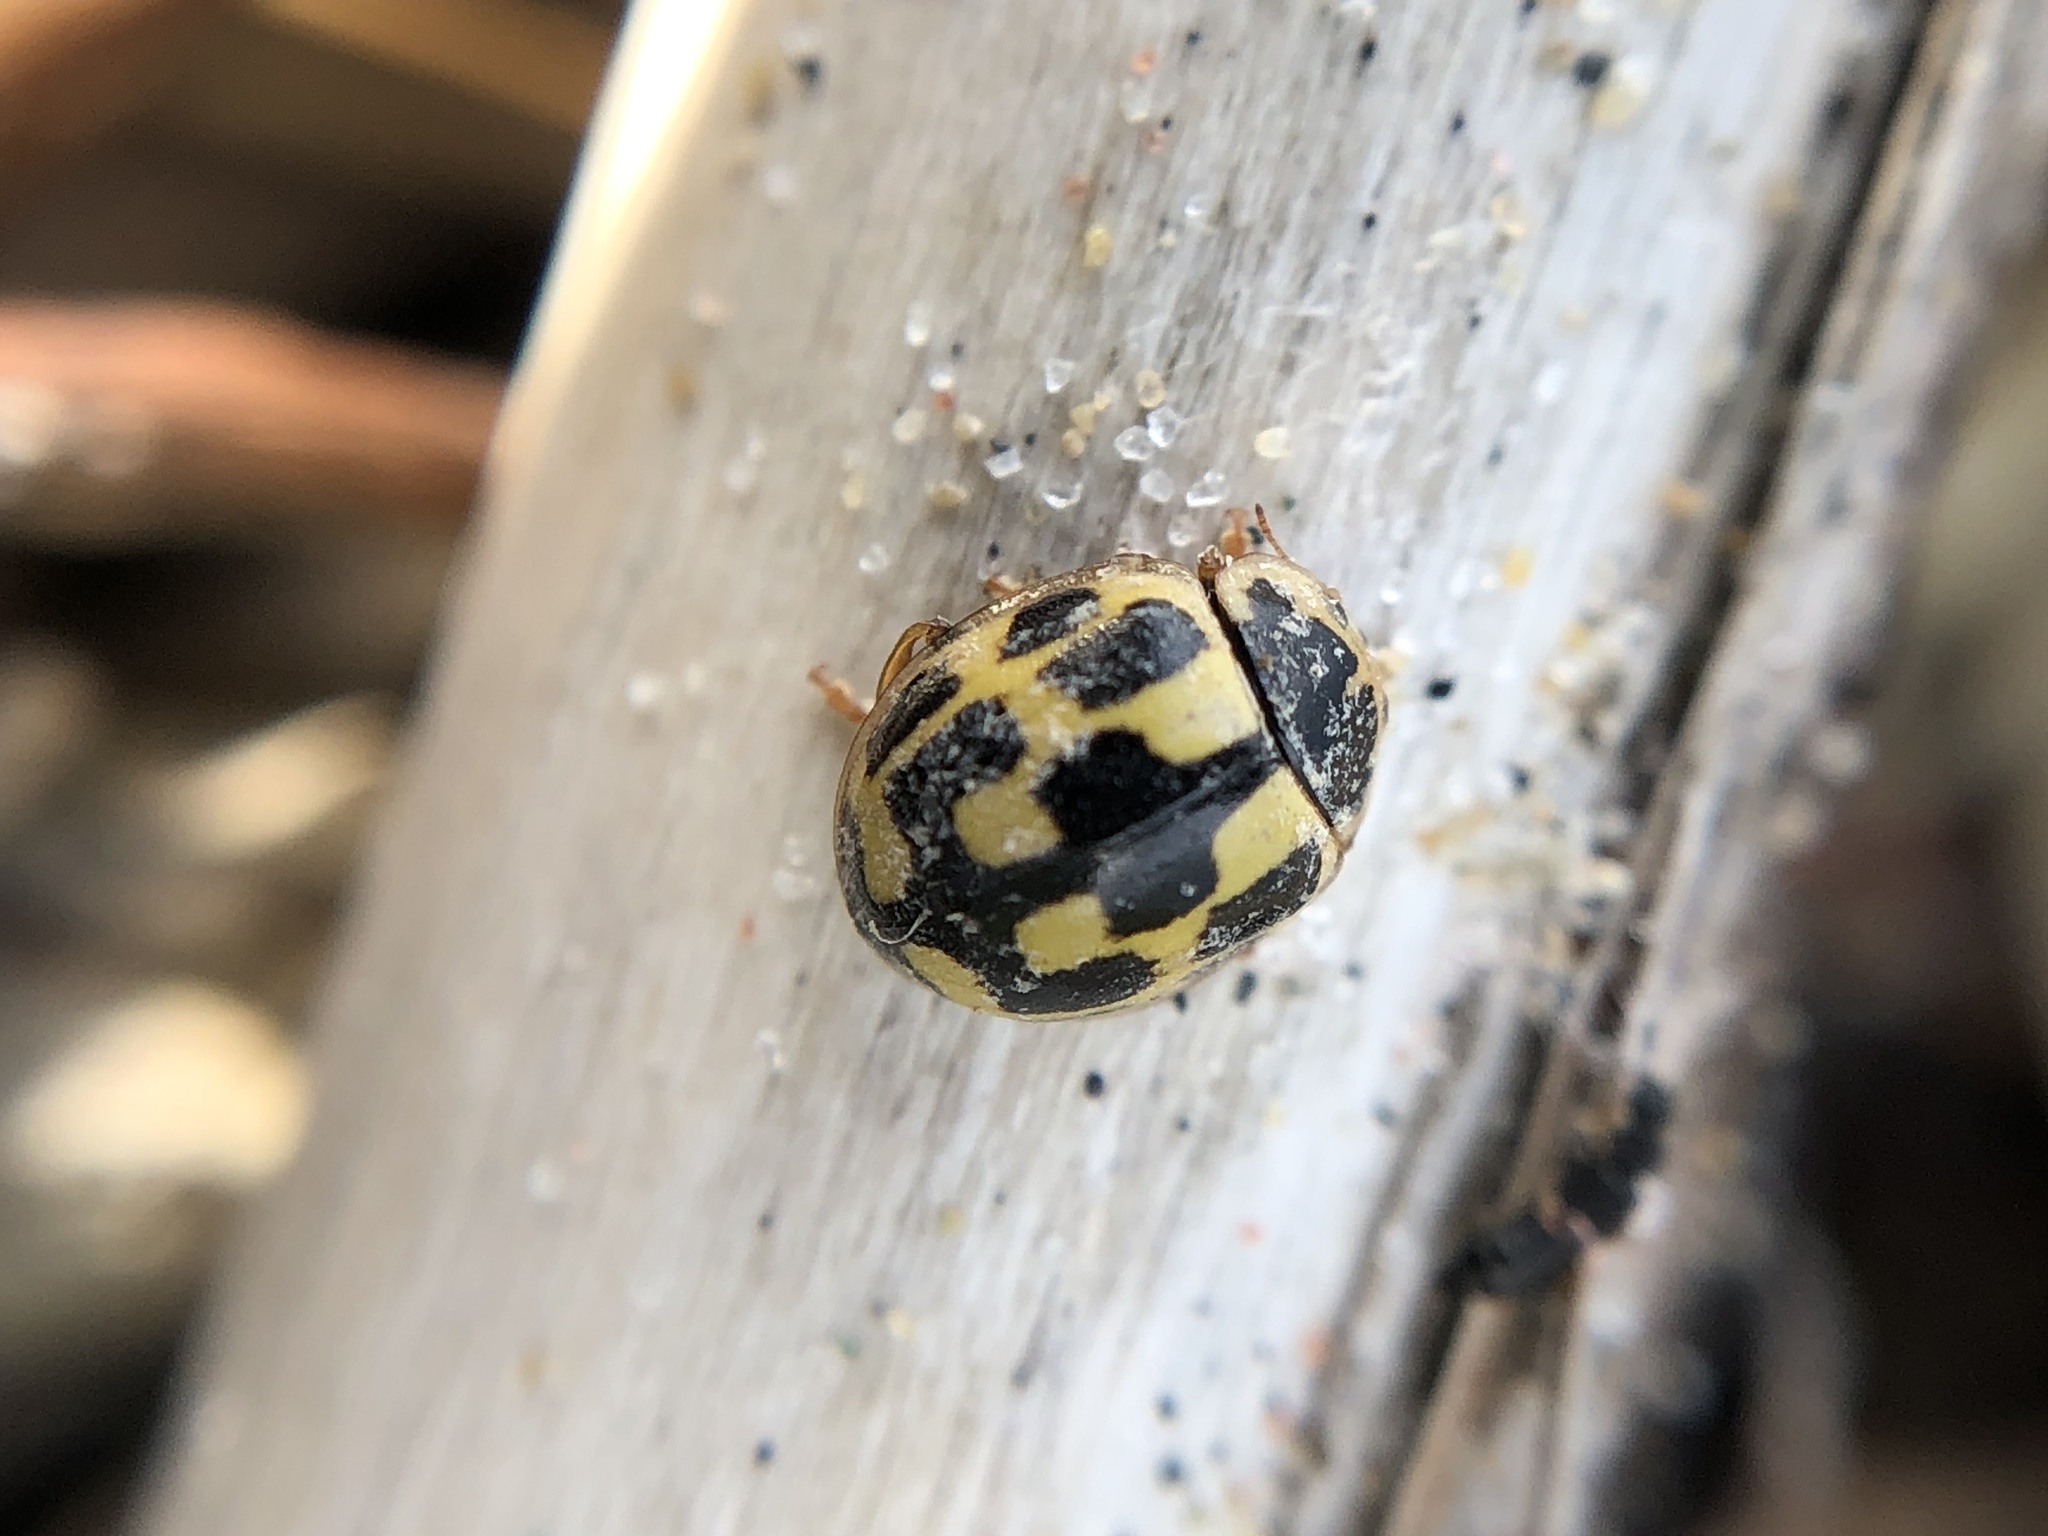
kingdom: Animalia
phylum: Arthropoda
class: Insecta
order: Coleoptera
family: Coccinellidae
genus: Propylaea
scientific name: Propylaea quatuordecimpunctata
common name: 14-spotted ladybird beetle
